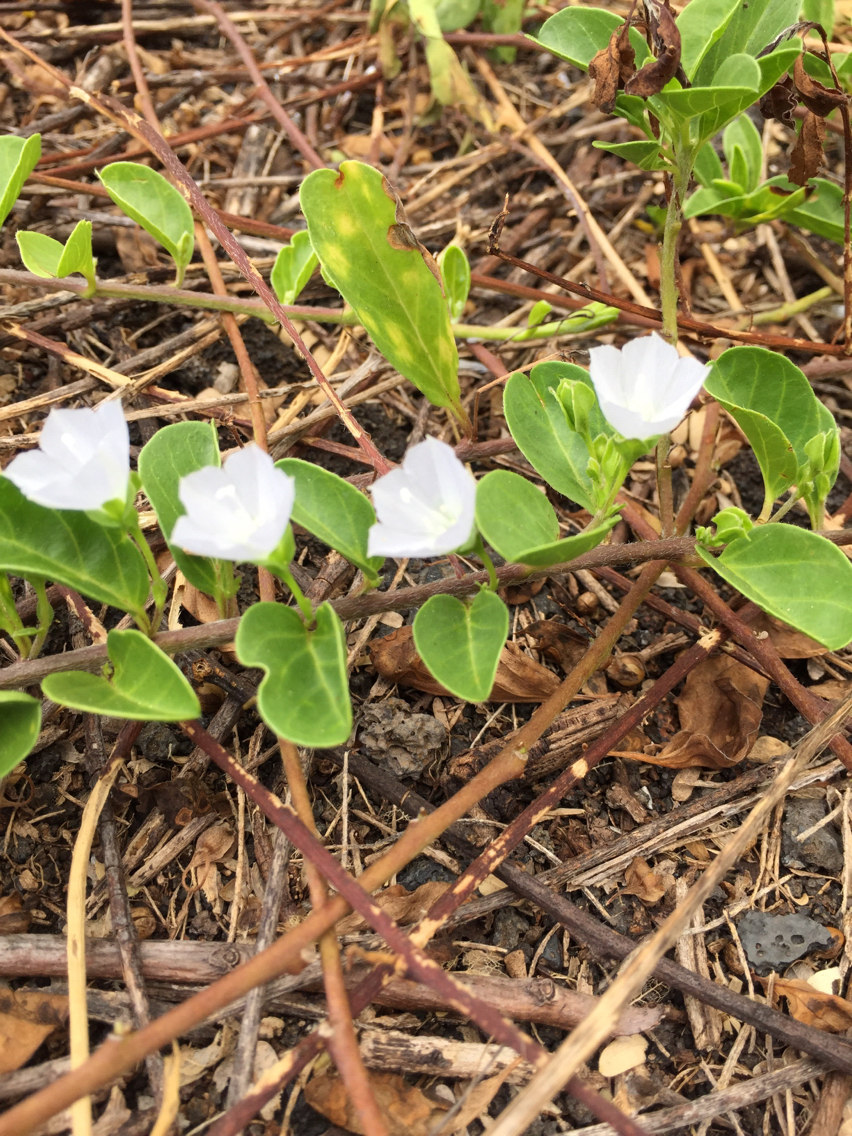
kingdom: Plantae
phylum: Tracheophyta
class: Magnoliopsida
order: Solanales
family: Convolvulaceae
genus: Jacquemontia
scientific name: Jacquemontia sandwicensis
